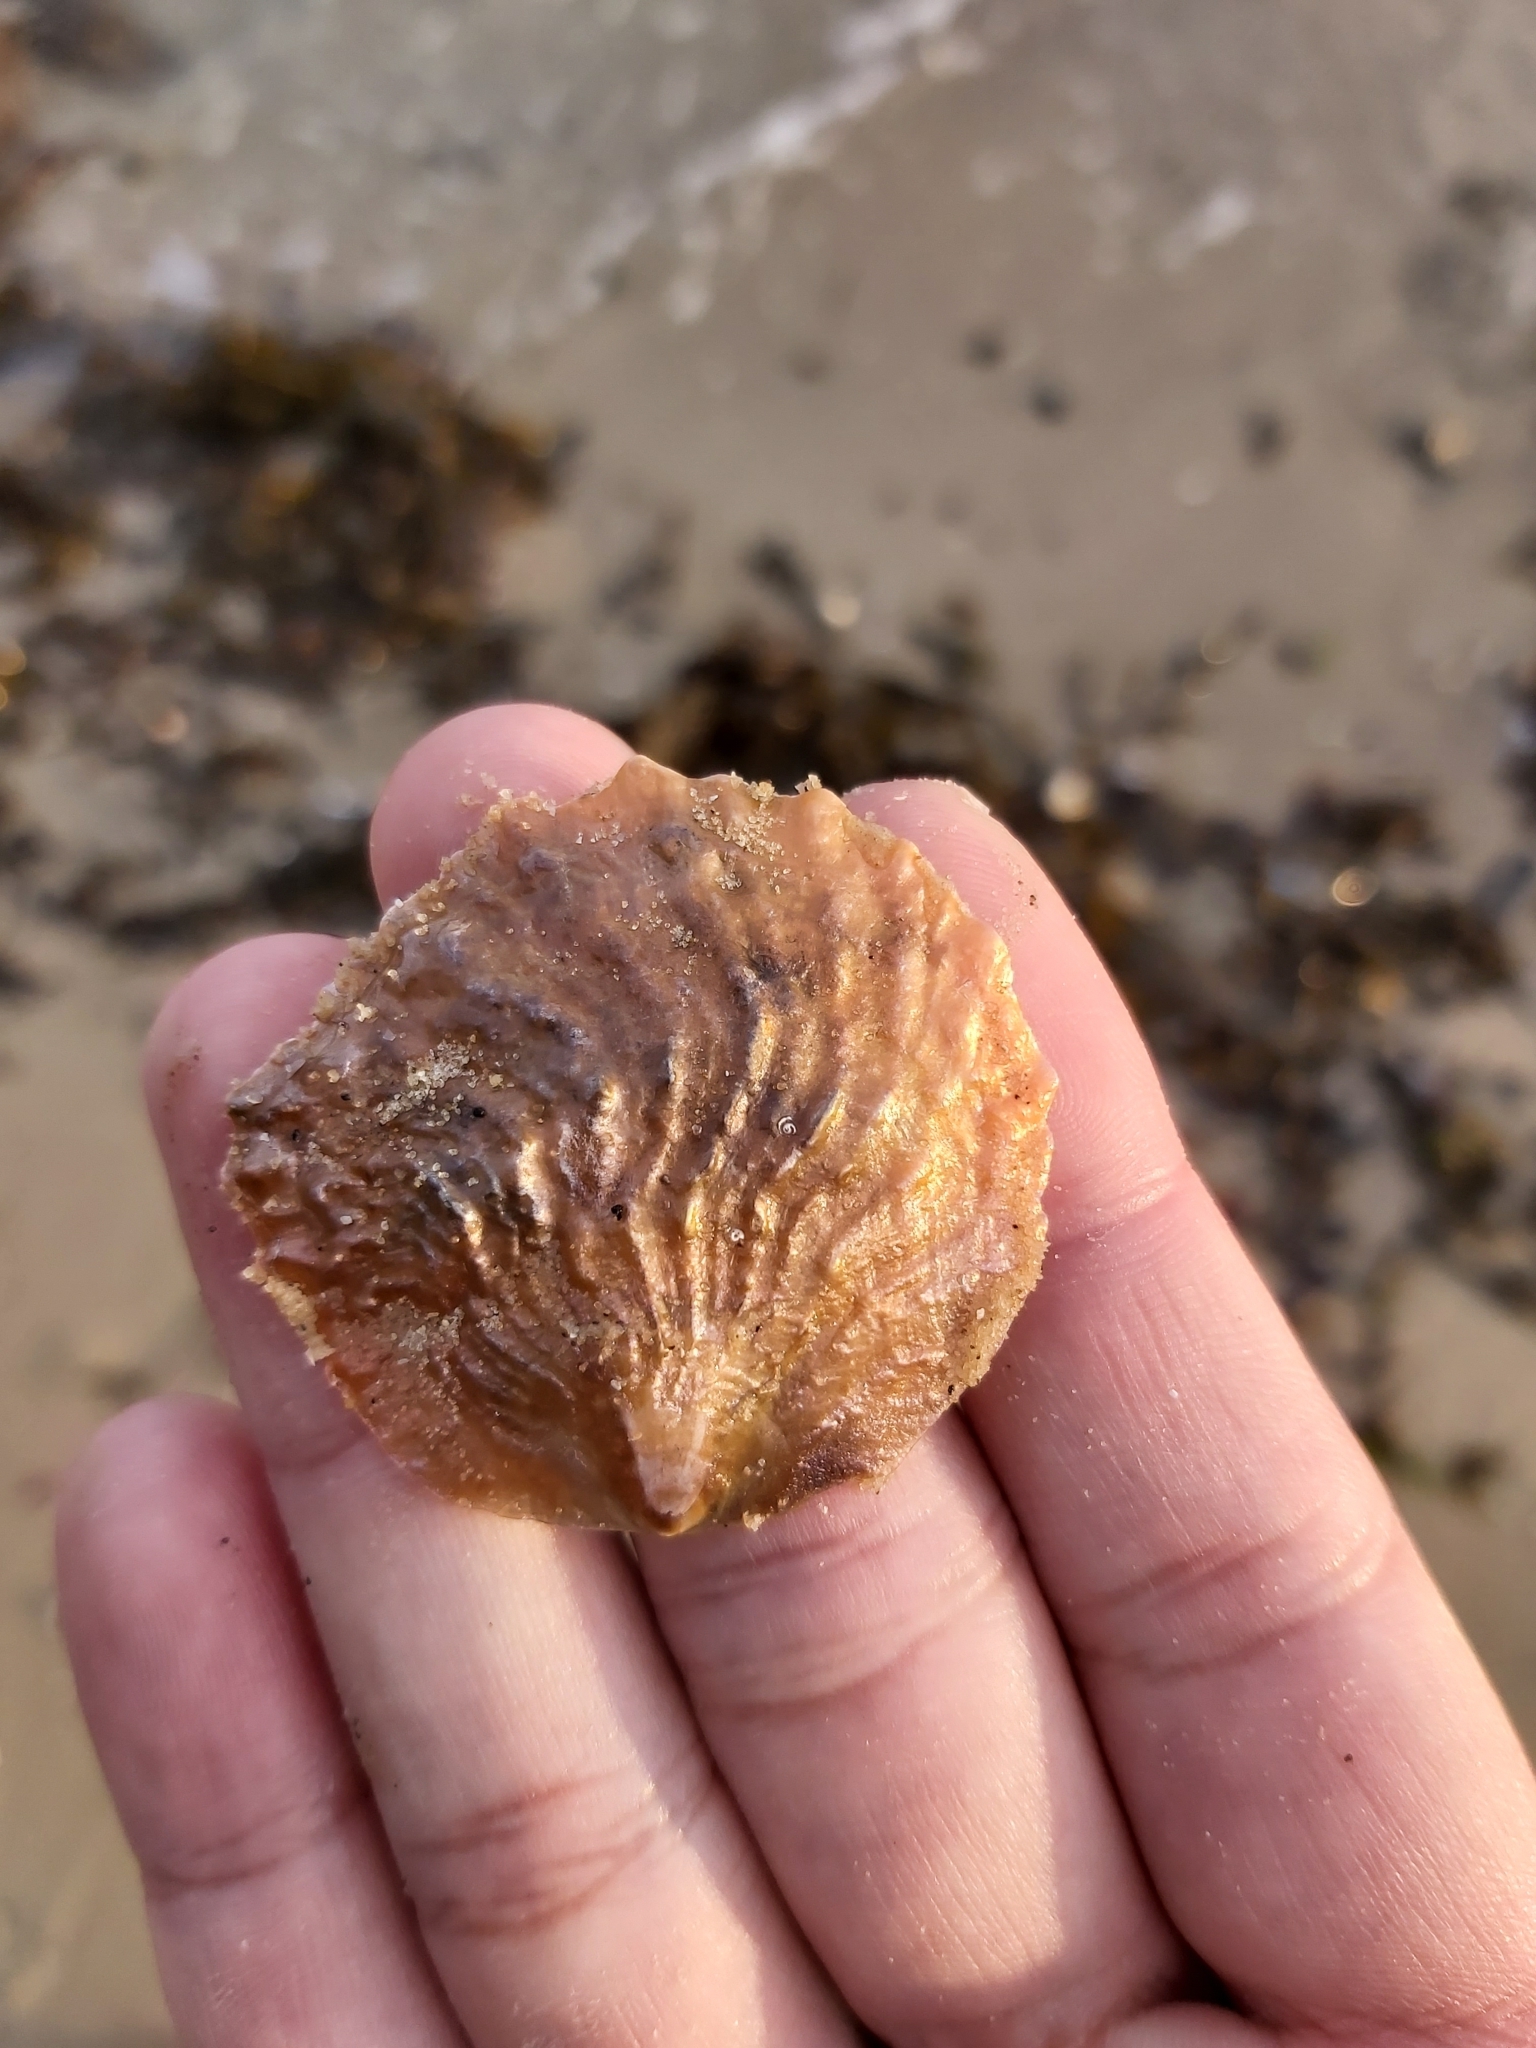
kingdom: Animalia
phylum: Mollusca
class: Bivalvia
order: Pectinida
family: Anomiidae
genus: Anomia
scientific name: Anomia trigonopsis
